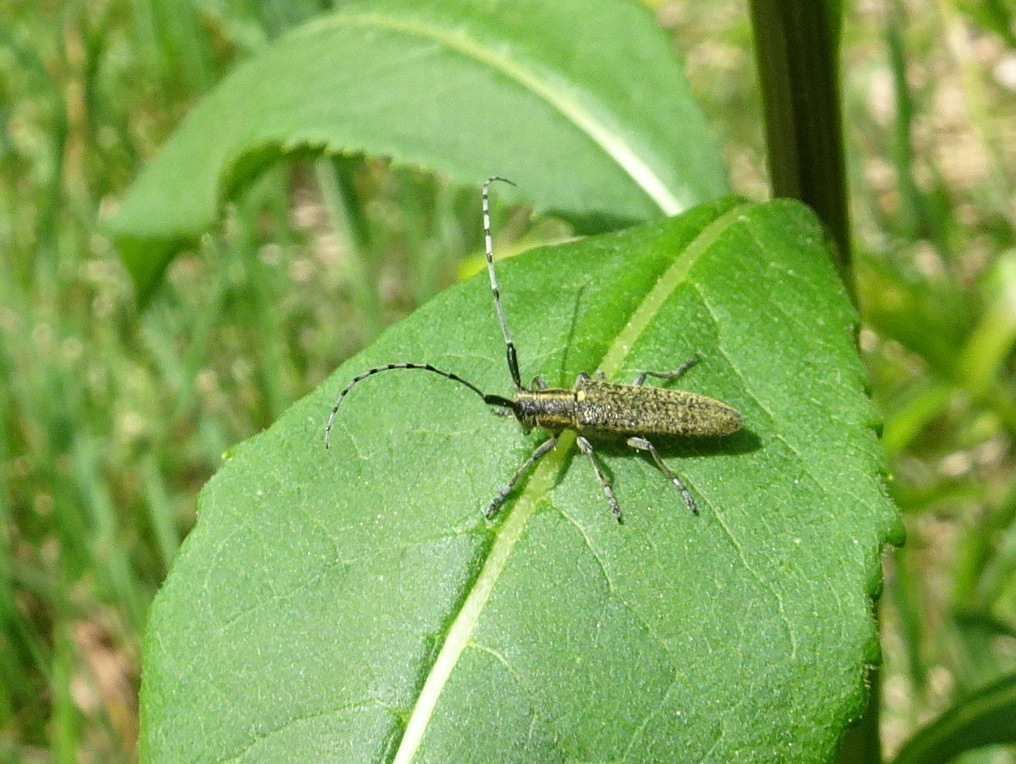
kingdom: Animalia
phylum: Arthropoda
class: Insecta
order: Coleoptera
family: Cerambycidae
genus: Agapanthia
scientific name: Agapanthia villosoviridescens
